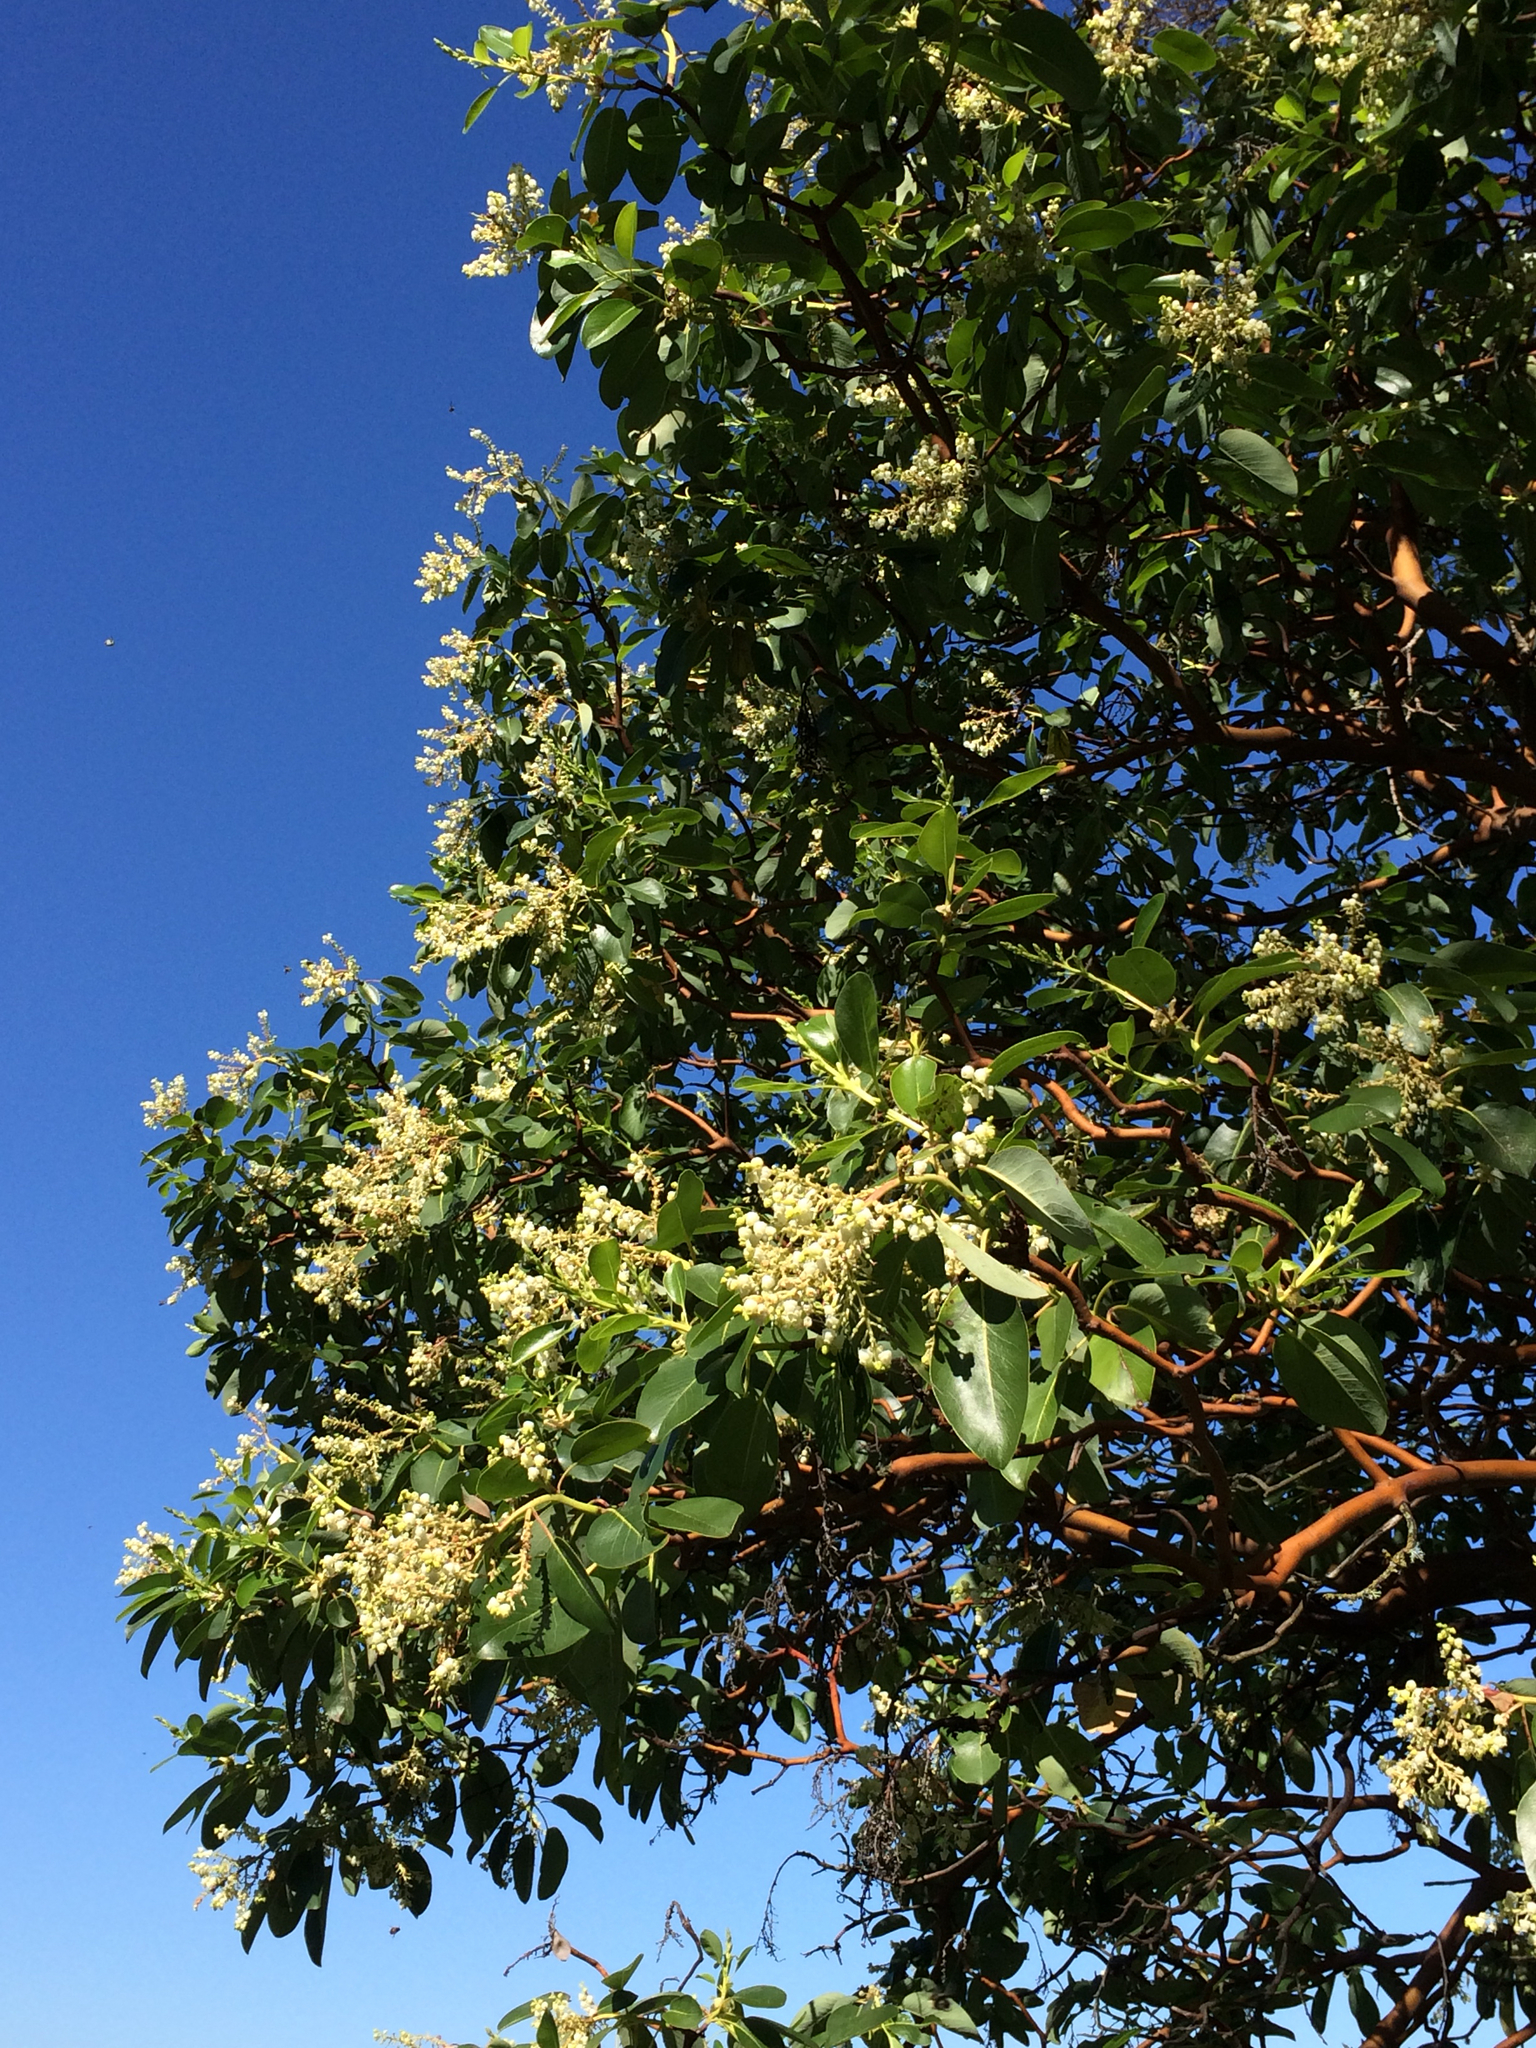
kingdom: Plantae
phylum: Tracheophyta
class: Magnoliopsida
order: Ericales
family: Ericaceae
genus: Arbutus
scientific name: Arbutus menziesii
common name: Pacific madrone
